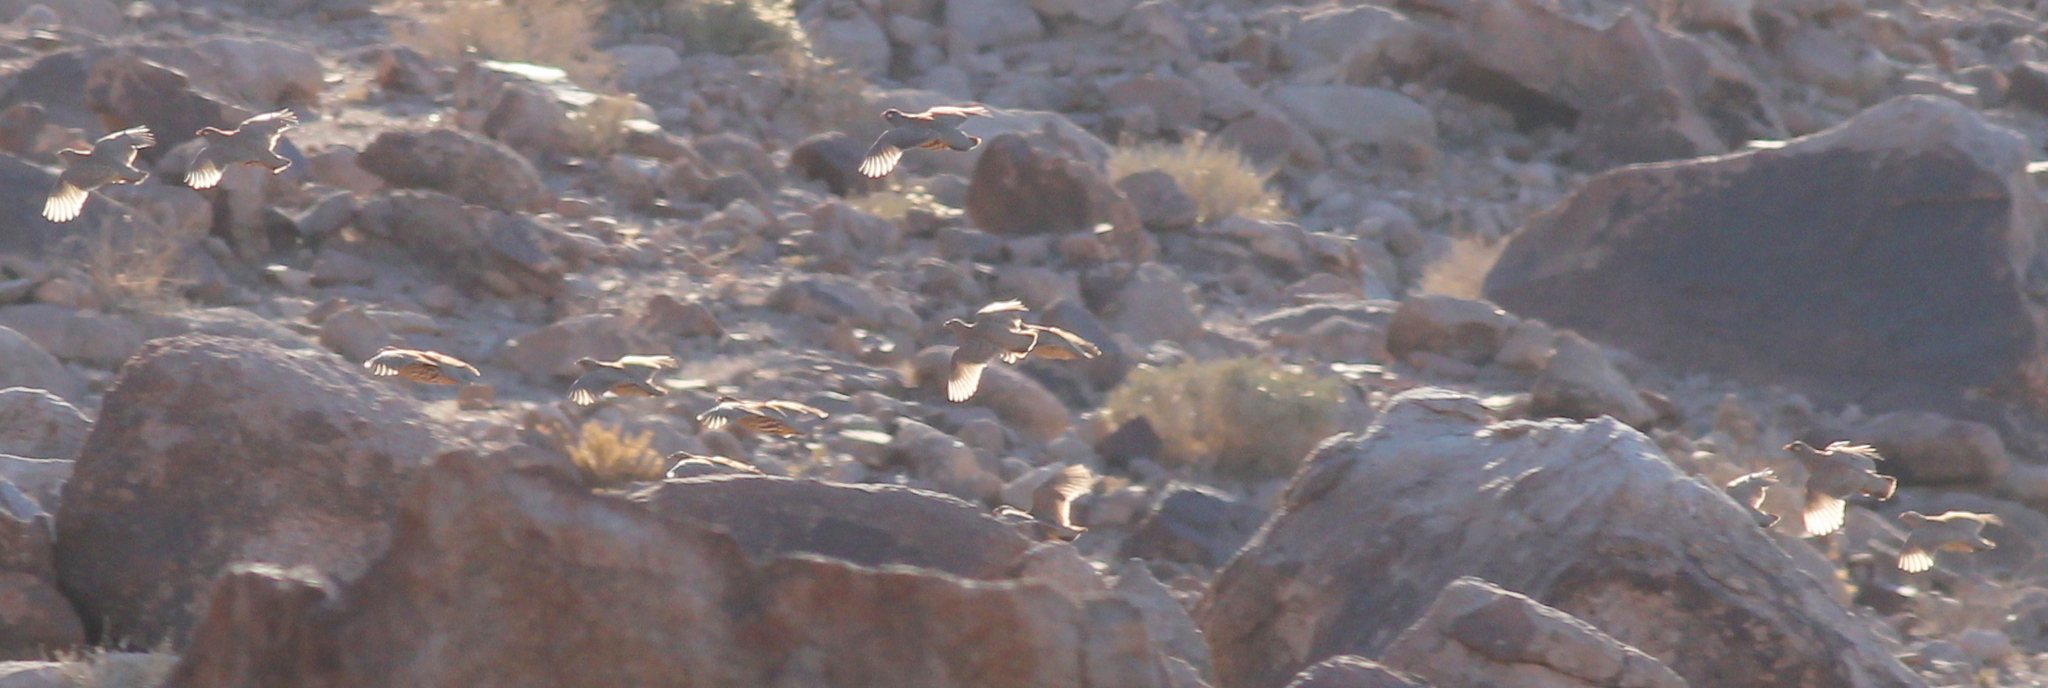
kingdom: Animalia
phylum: Chordata
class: Aves
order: Galliformes
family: Phasianidae
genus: Ammoperdix
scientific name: Ammoperdix heyi
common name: Sand partridge
